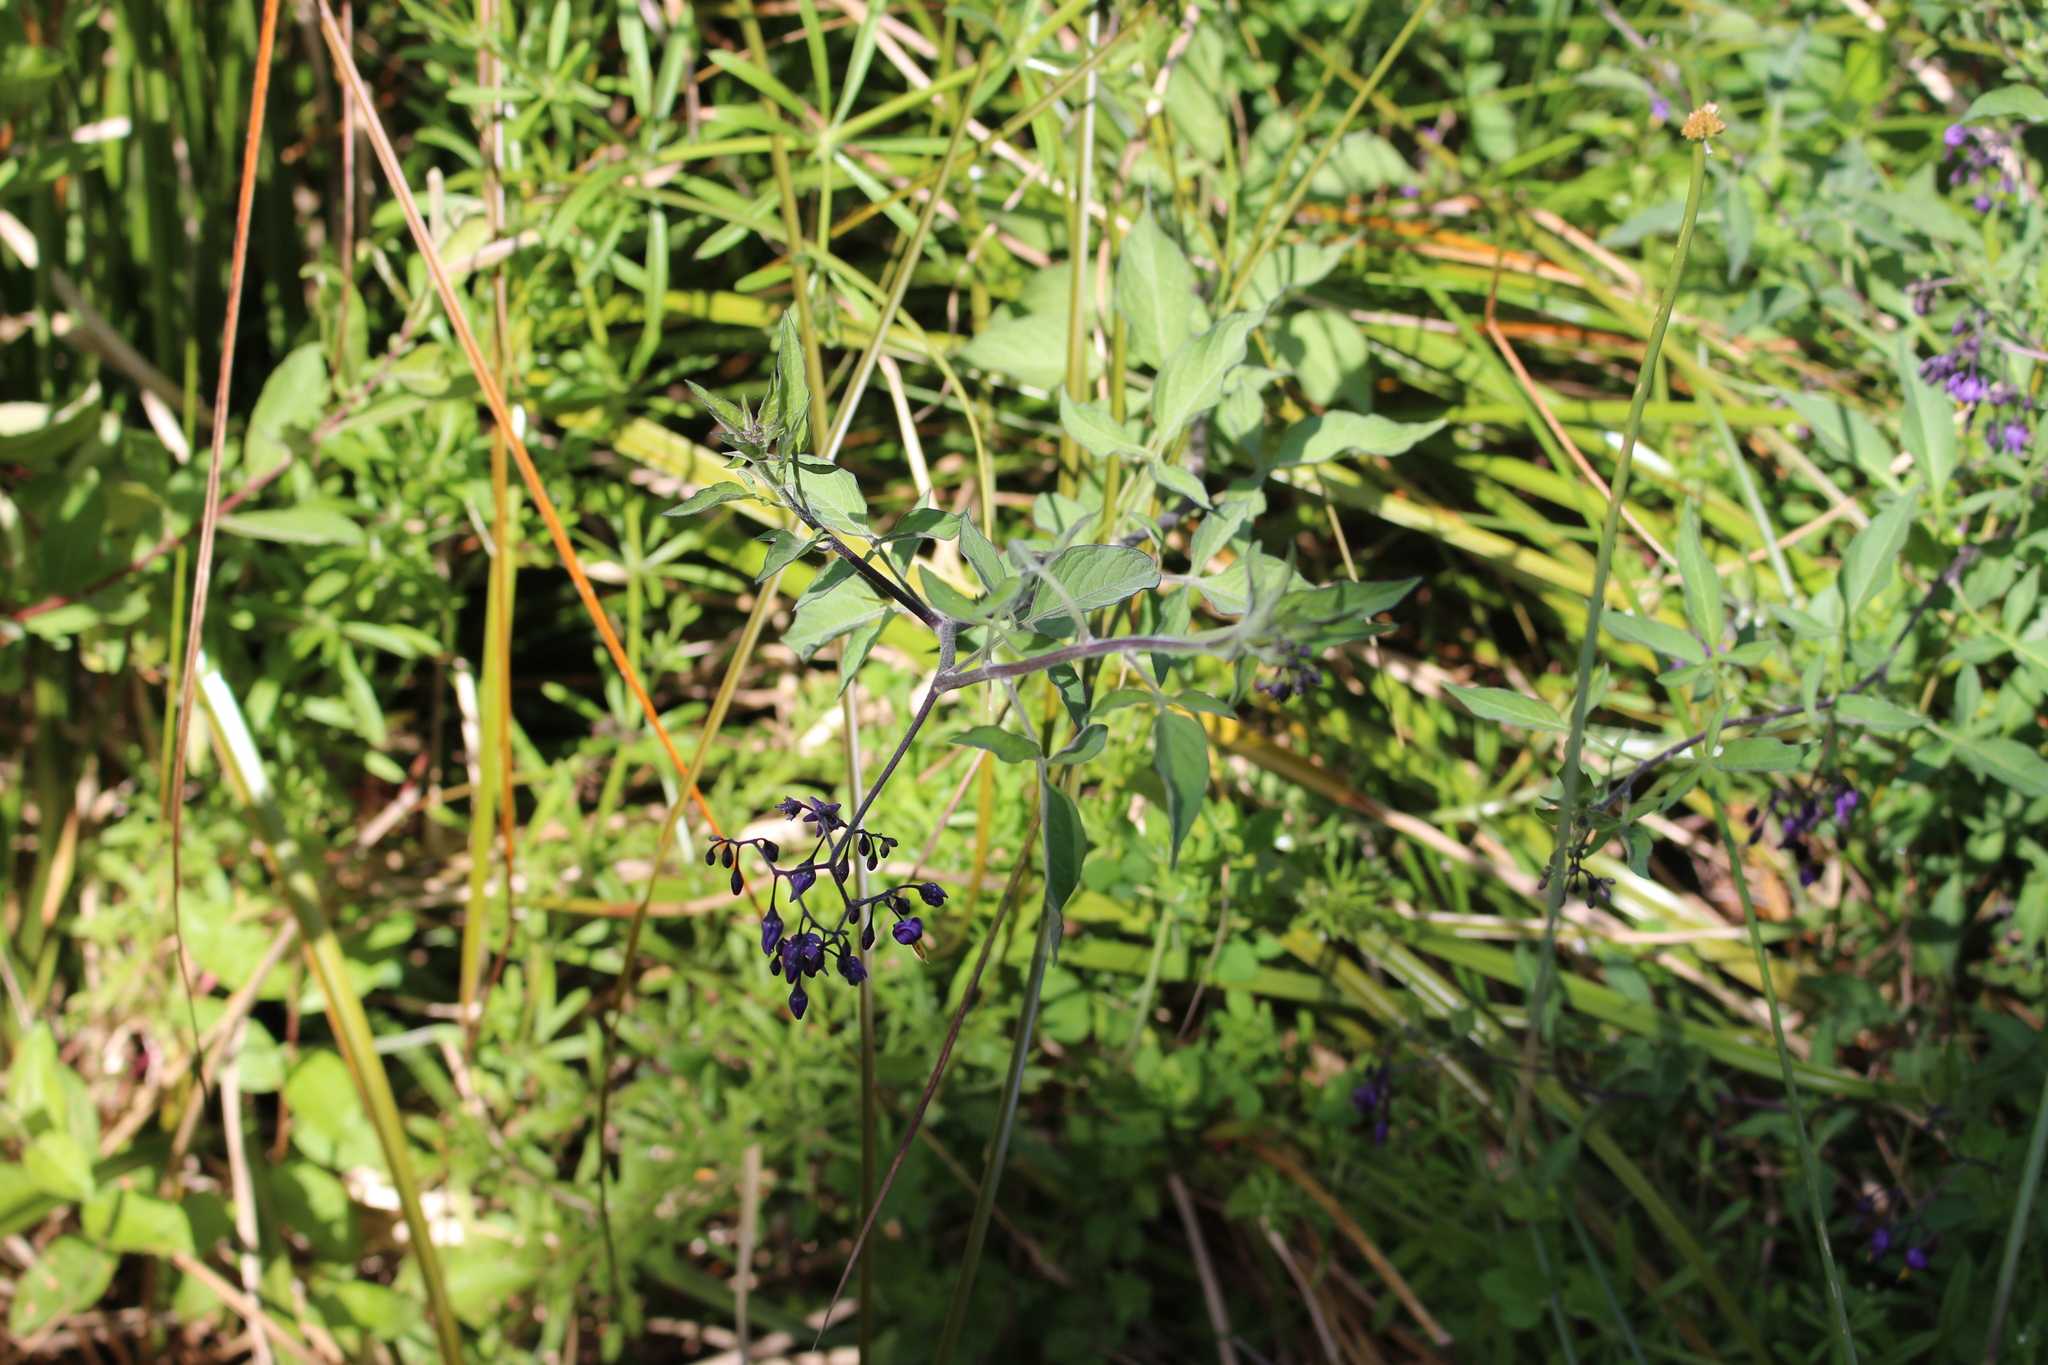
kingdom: Plantae
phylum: Tracheophyta
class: Magnoliopsida
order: Solanales
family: Solanaceae
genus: Solanum
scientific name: Solanum dulcamara
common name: Climbing nightshade
